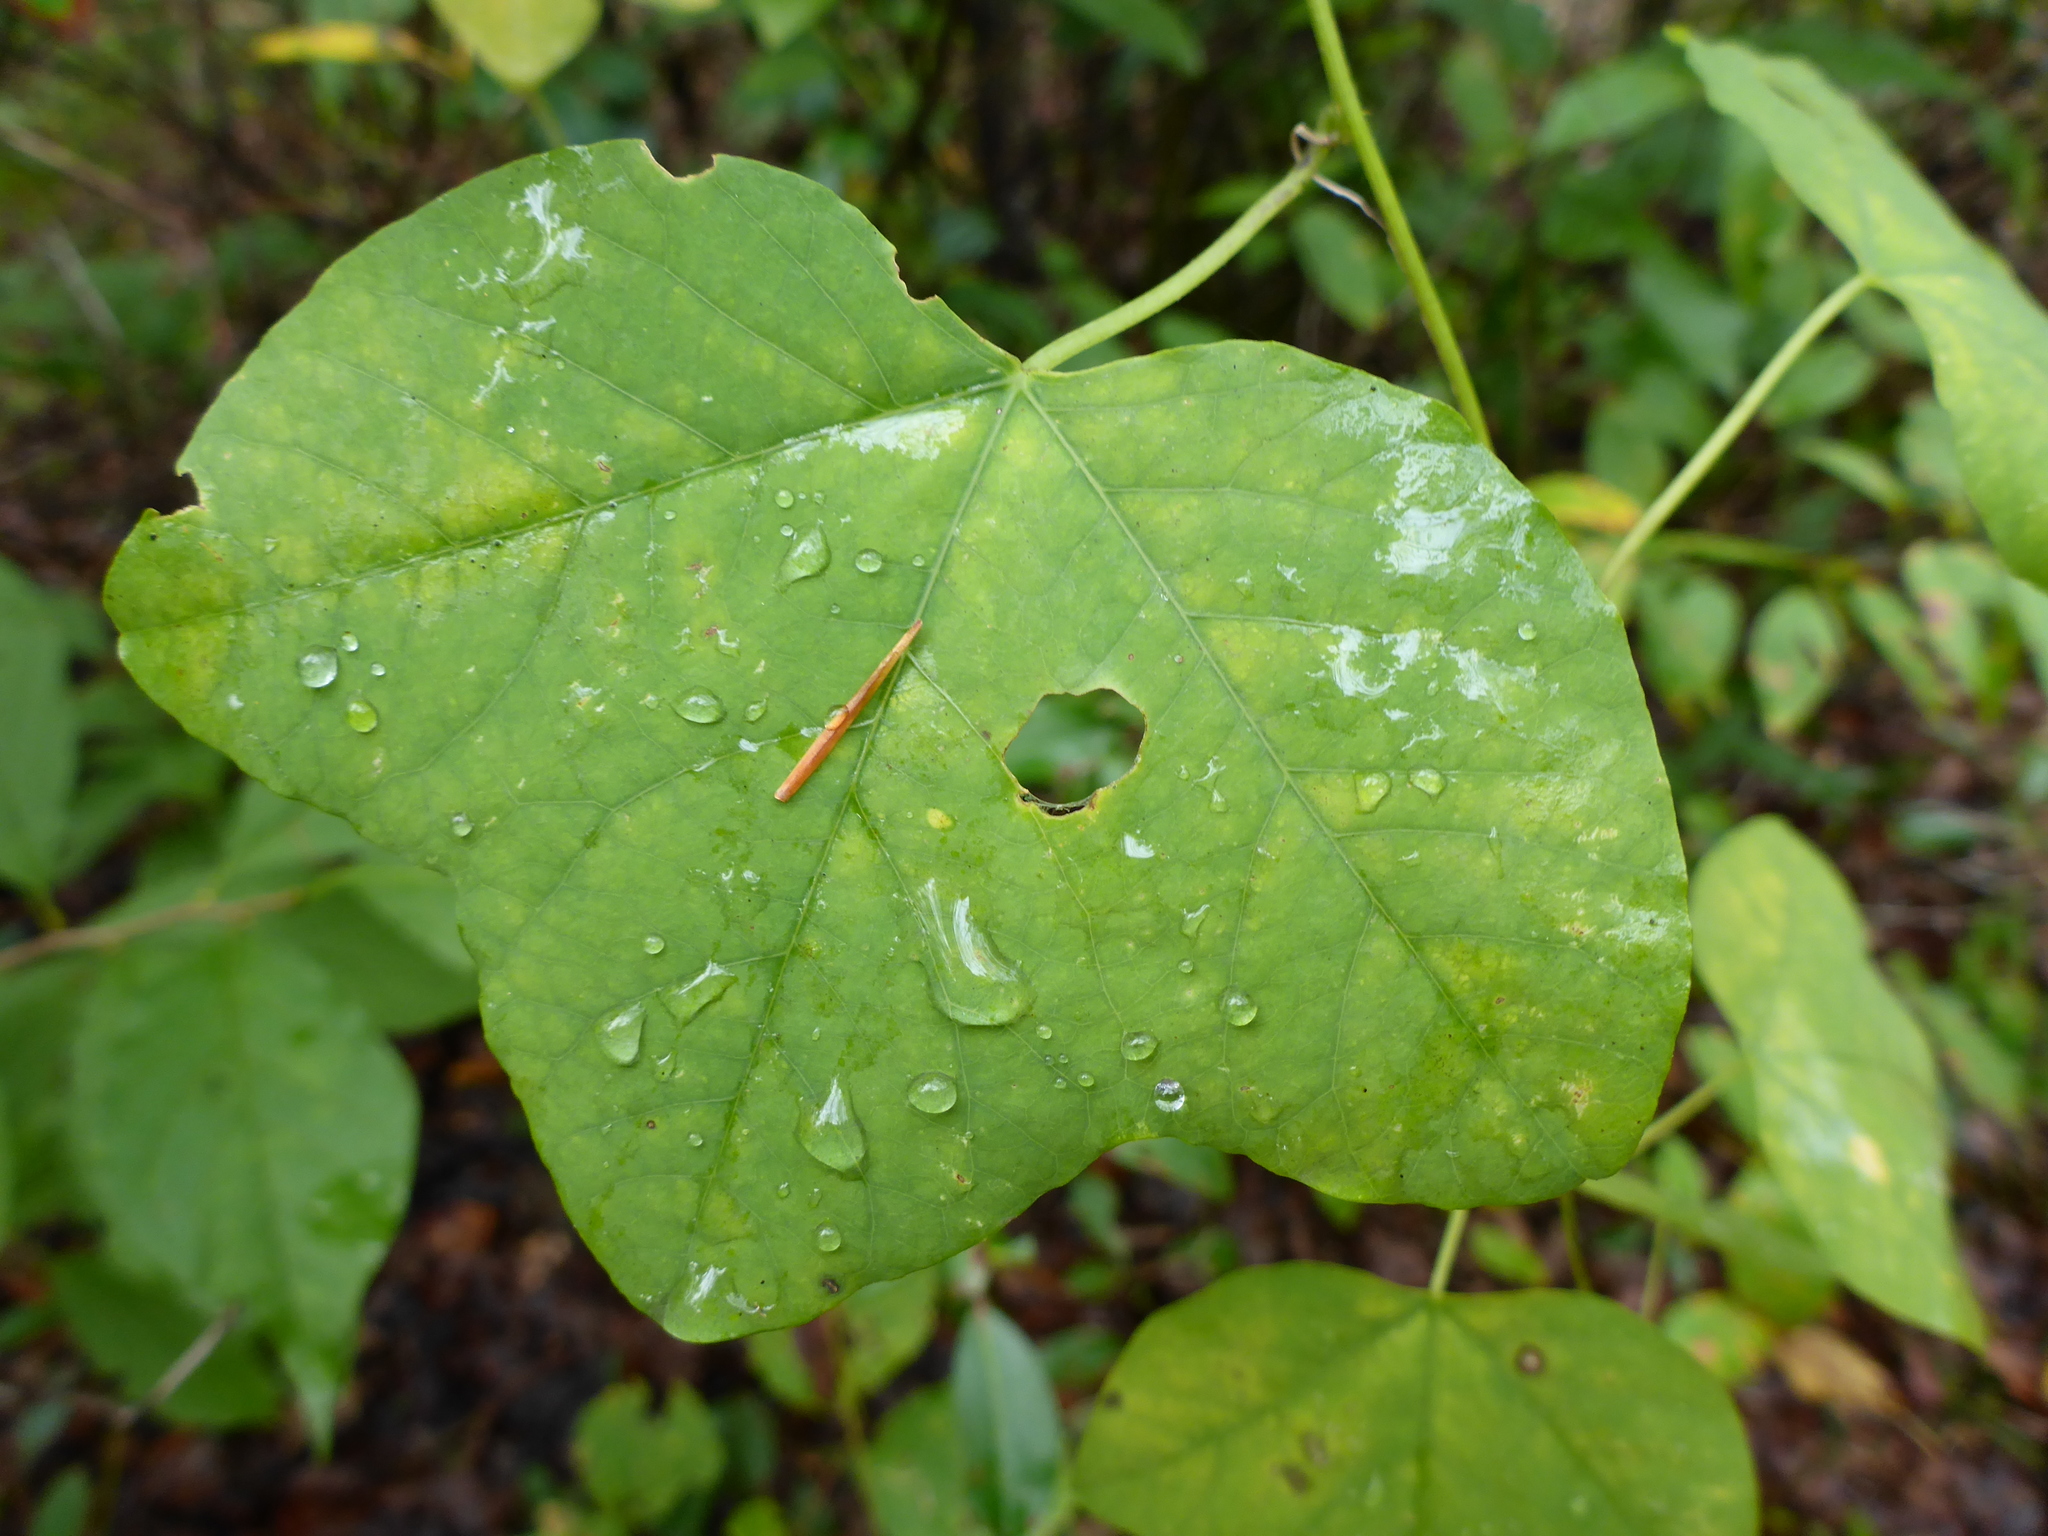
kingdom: Plantae
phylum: Tracheophyta
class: Magnoliopsida
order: Malpighiales
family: Passifloraceae
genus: Passiflora
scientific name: Passiflora lutea
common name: Yellow passionflower
